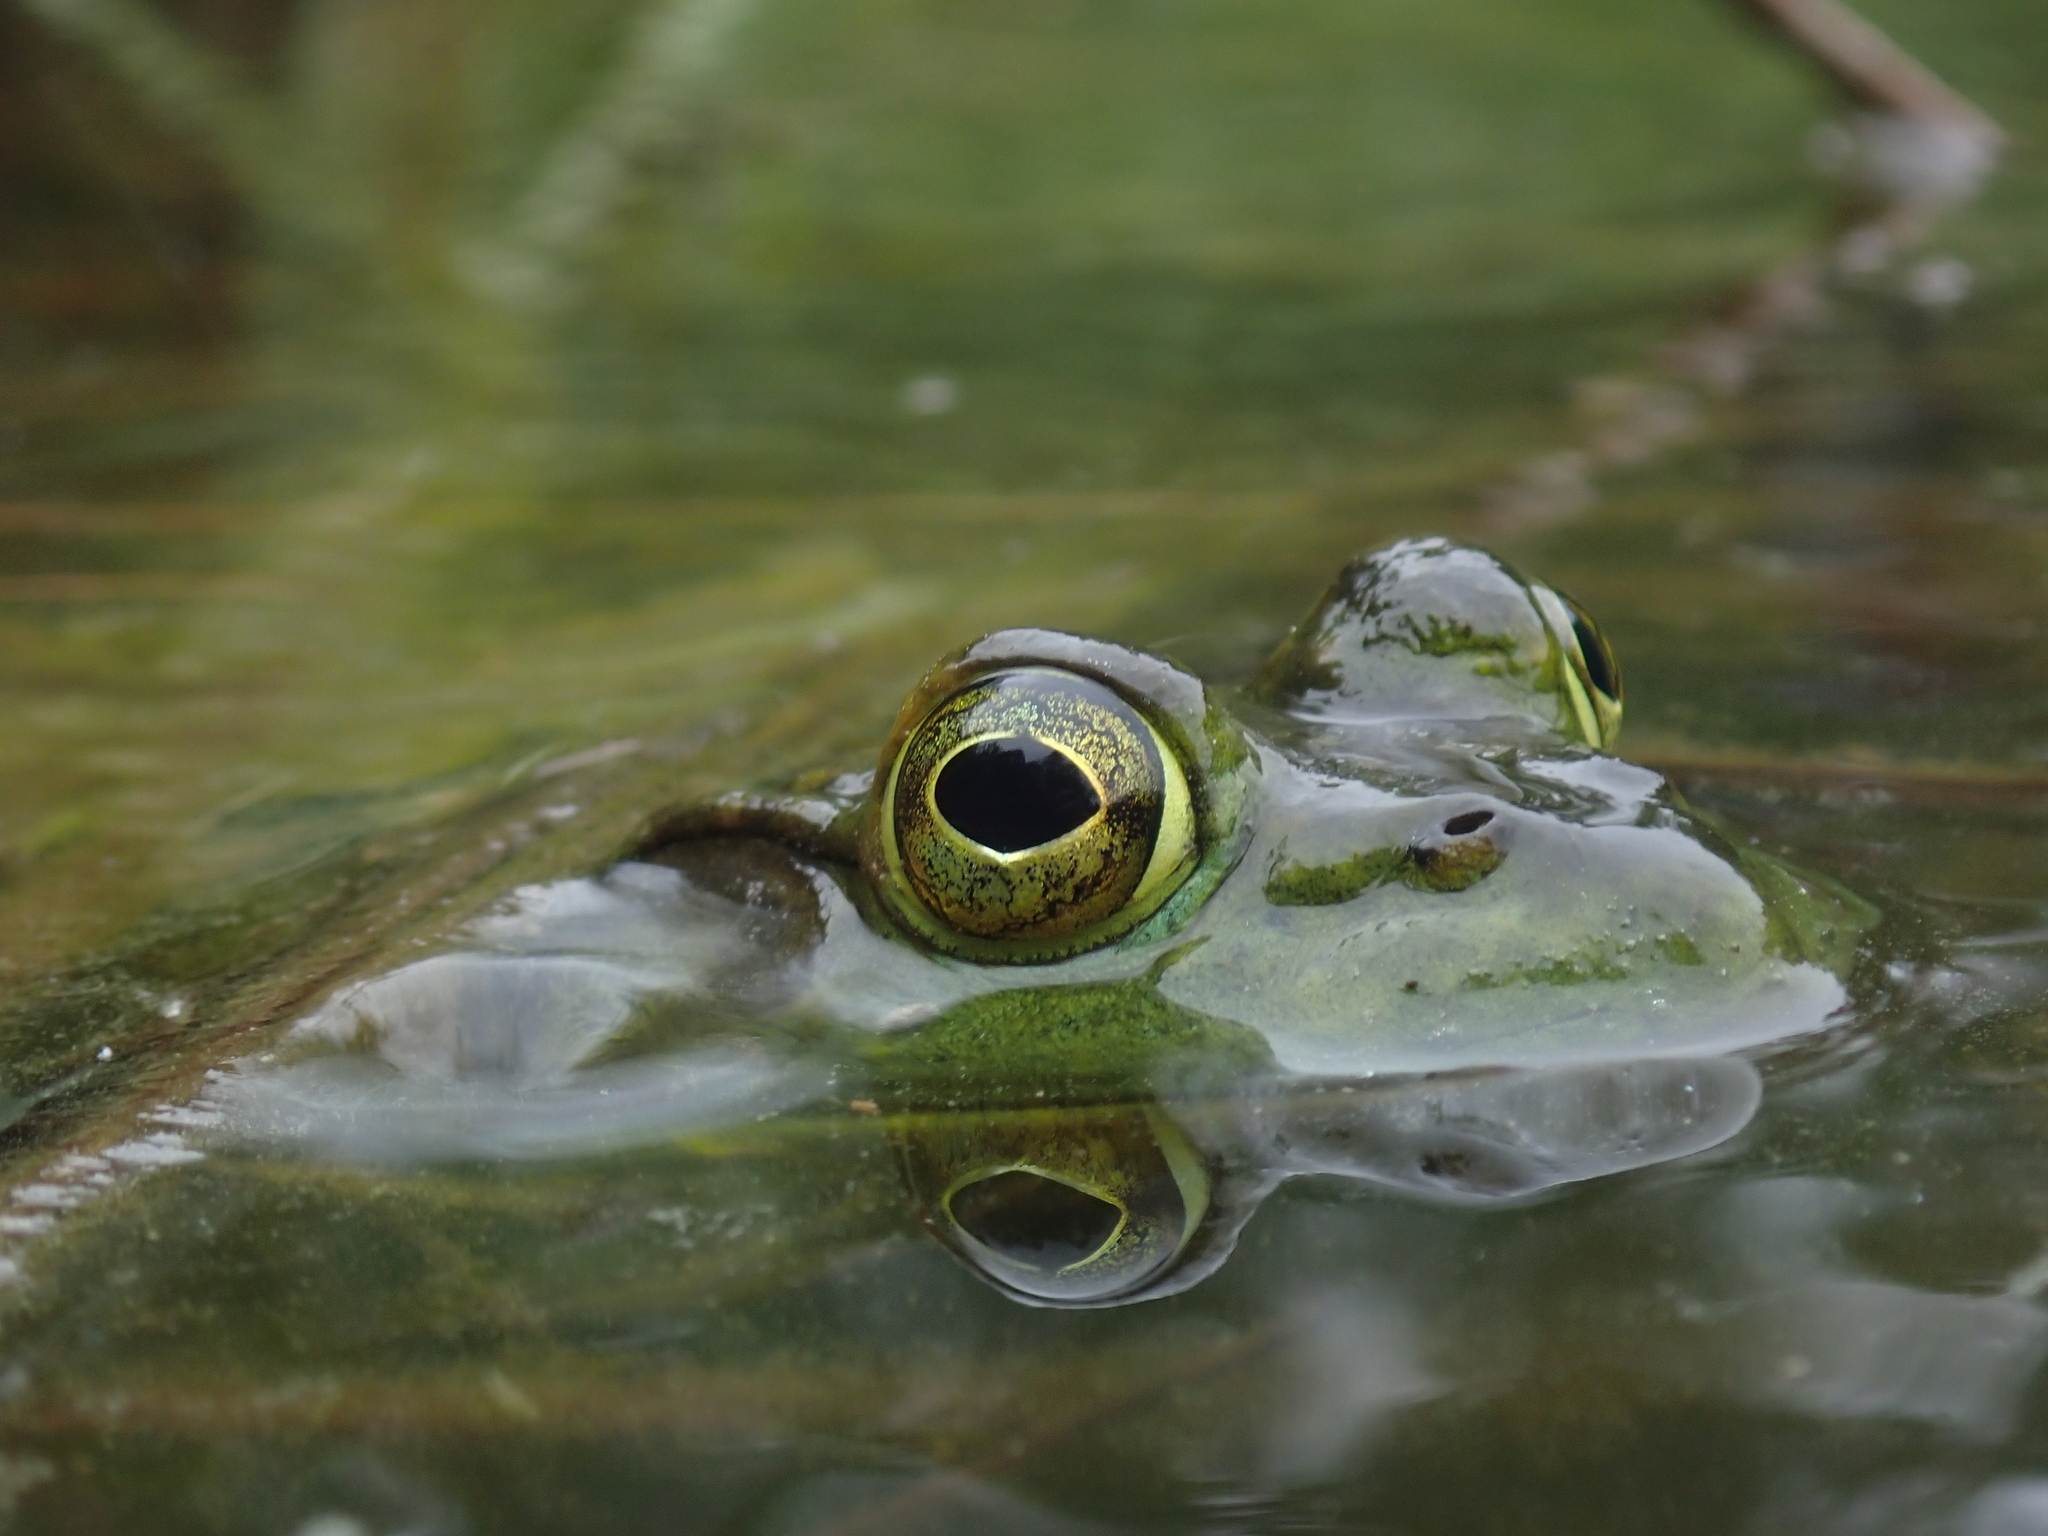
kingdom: Animalia
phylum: Chordata
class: Amphibia
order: Anura
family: Ranidae
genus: Lithobates
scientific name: Lithobates catesbeianus
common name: American bullfrog
